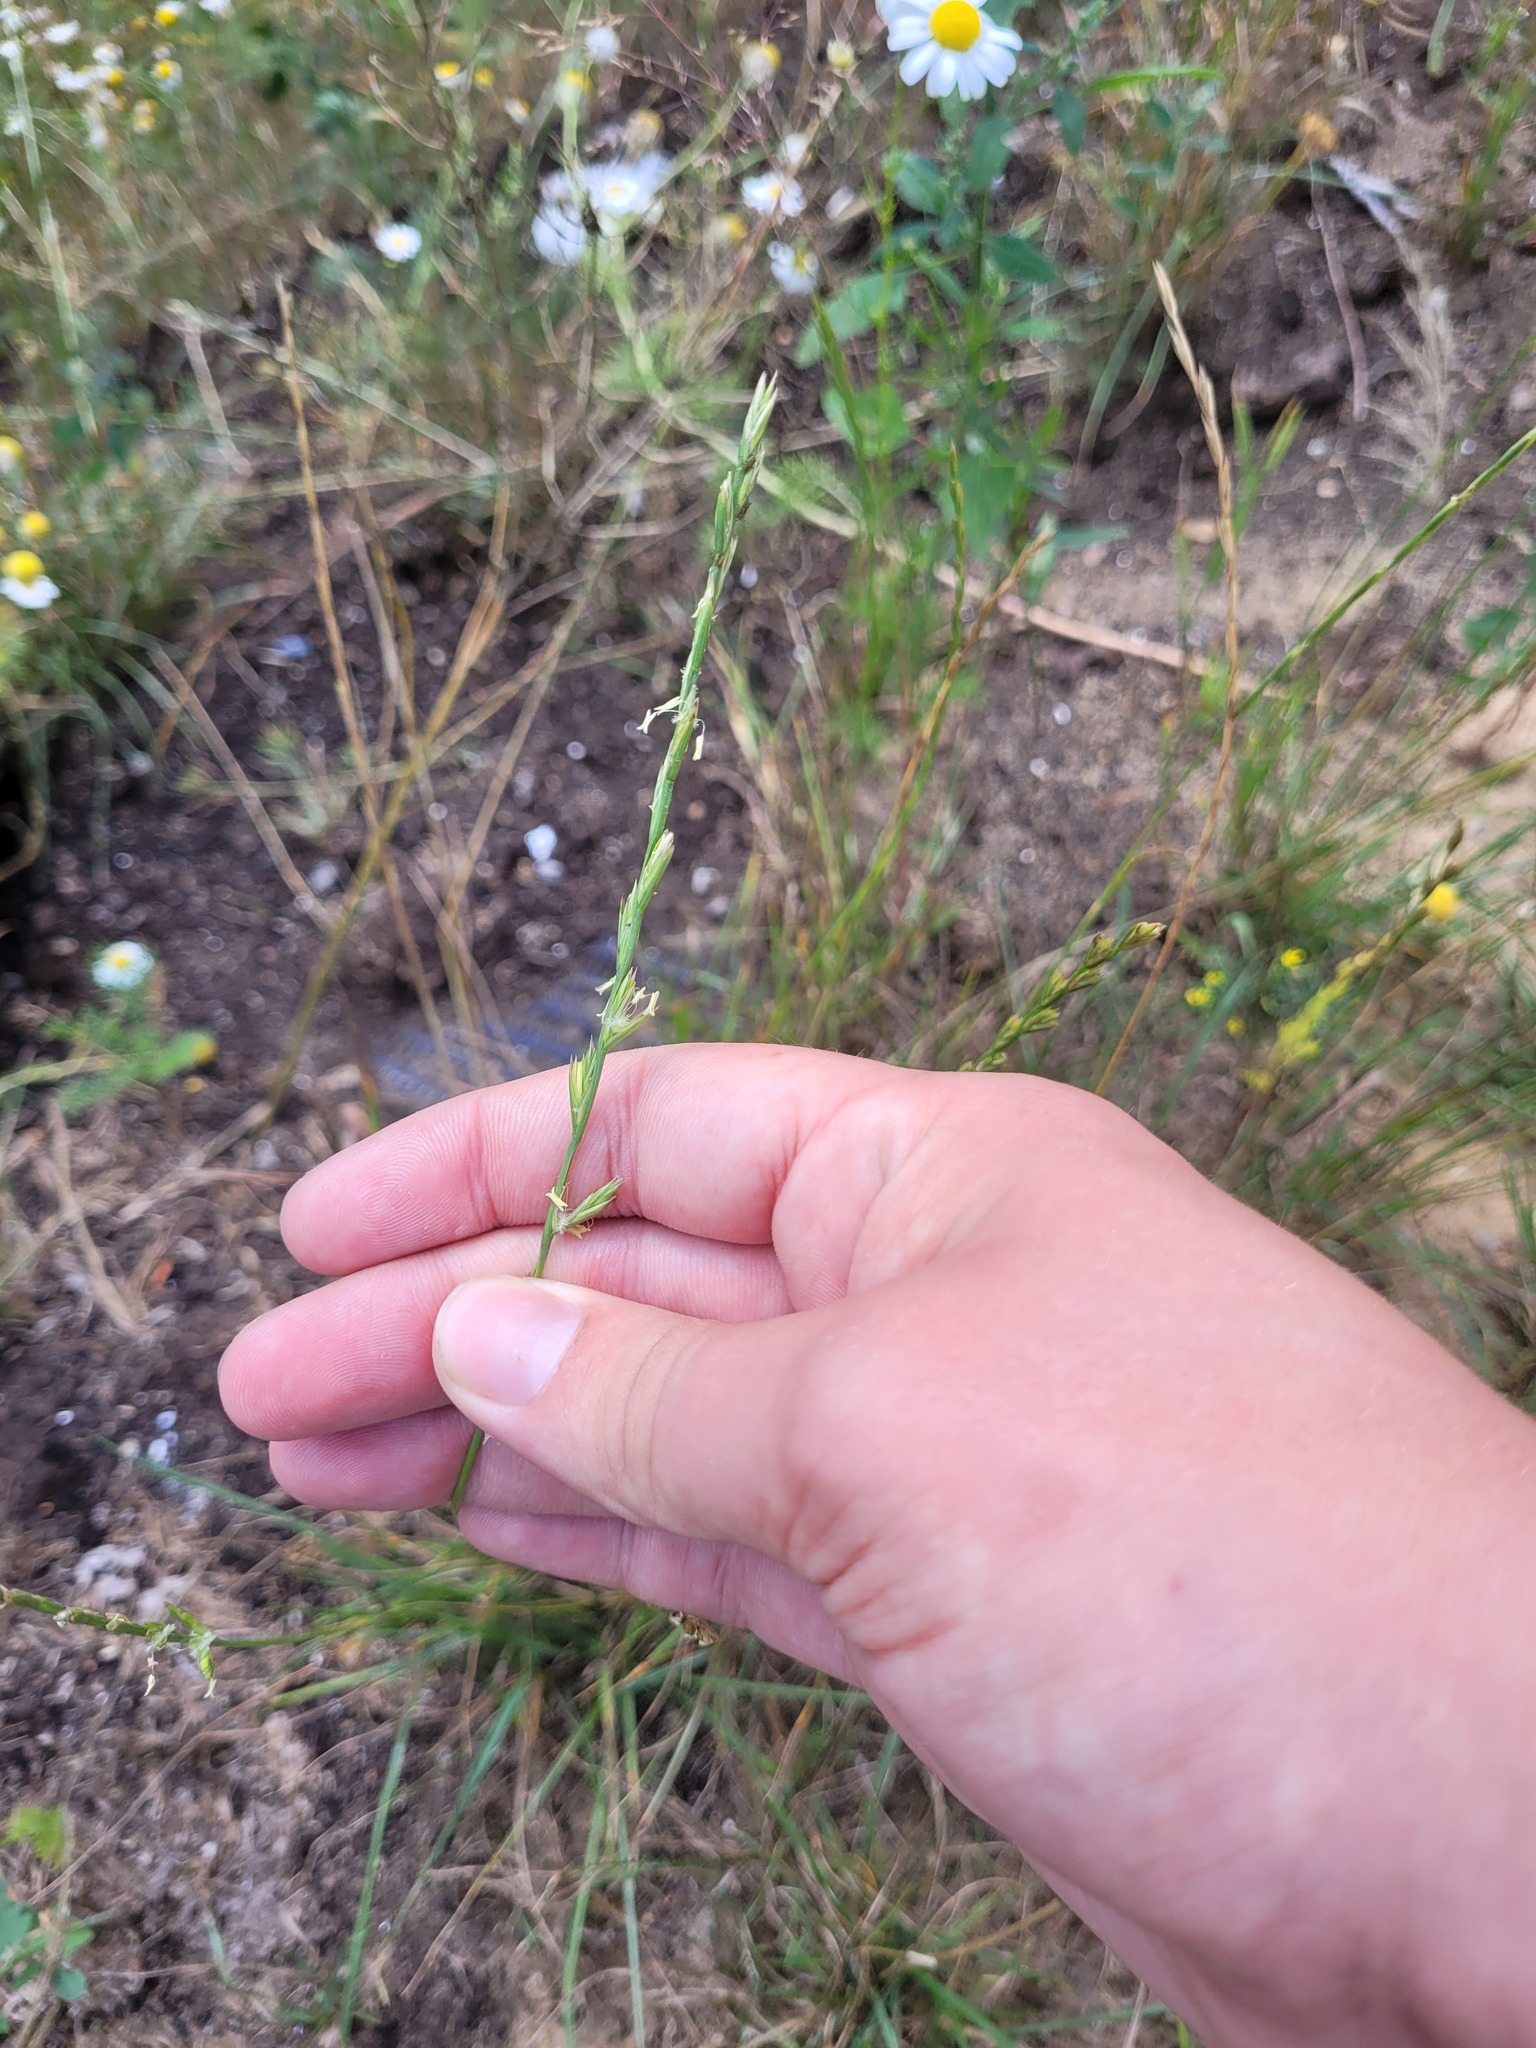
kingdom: Plantae
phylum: Tracheophyta
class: Liliopsida
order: Poales
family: Poaceae
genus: Lolium
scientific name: Lolium perenne
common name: Perennial ryegrass
